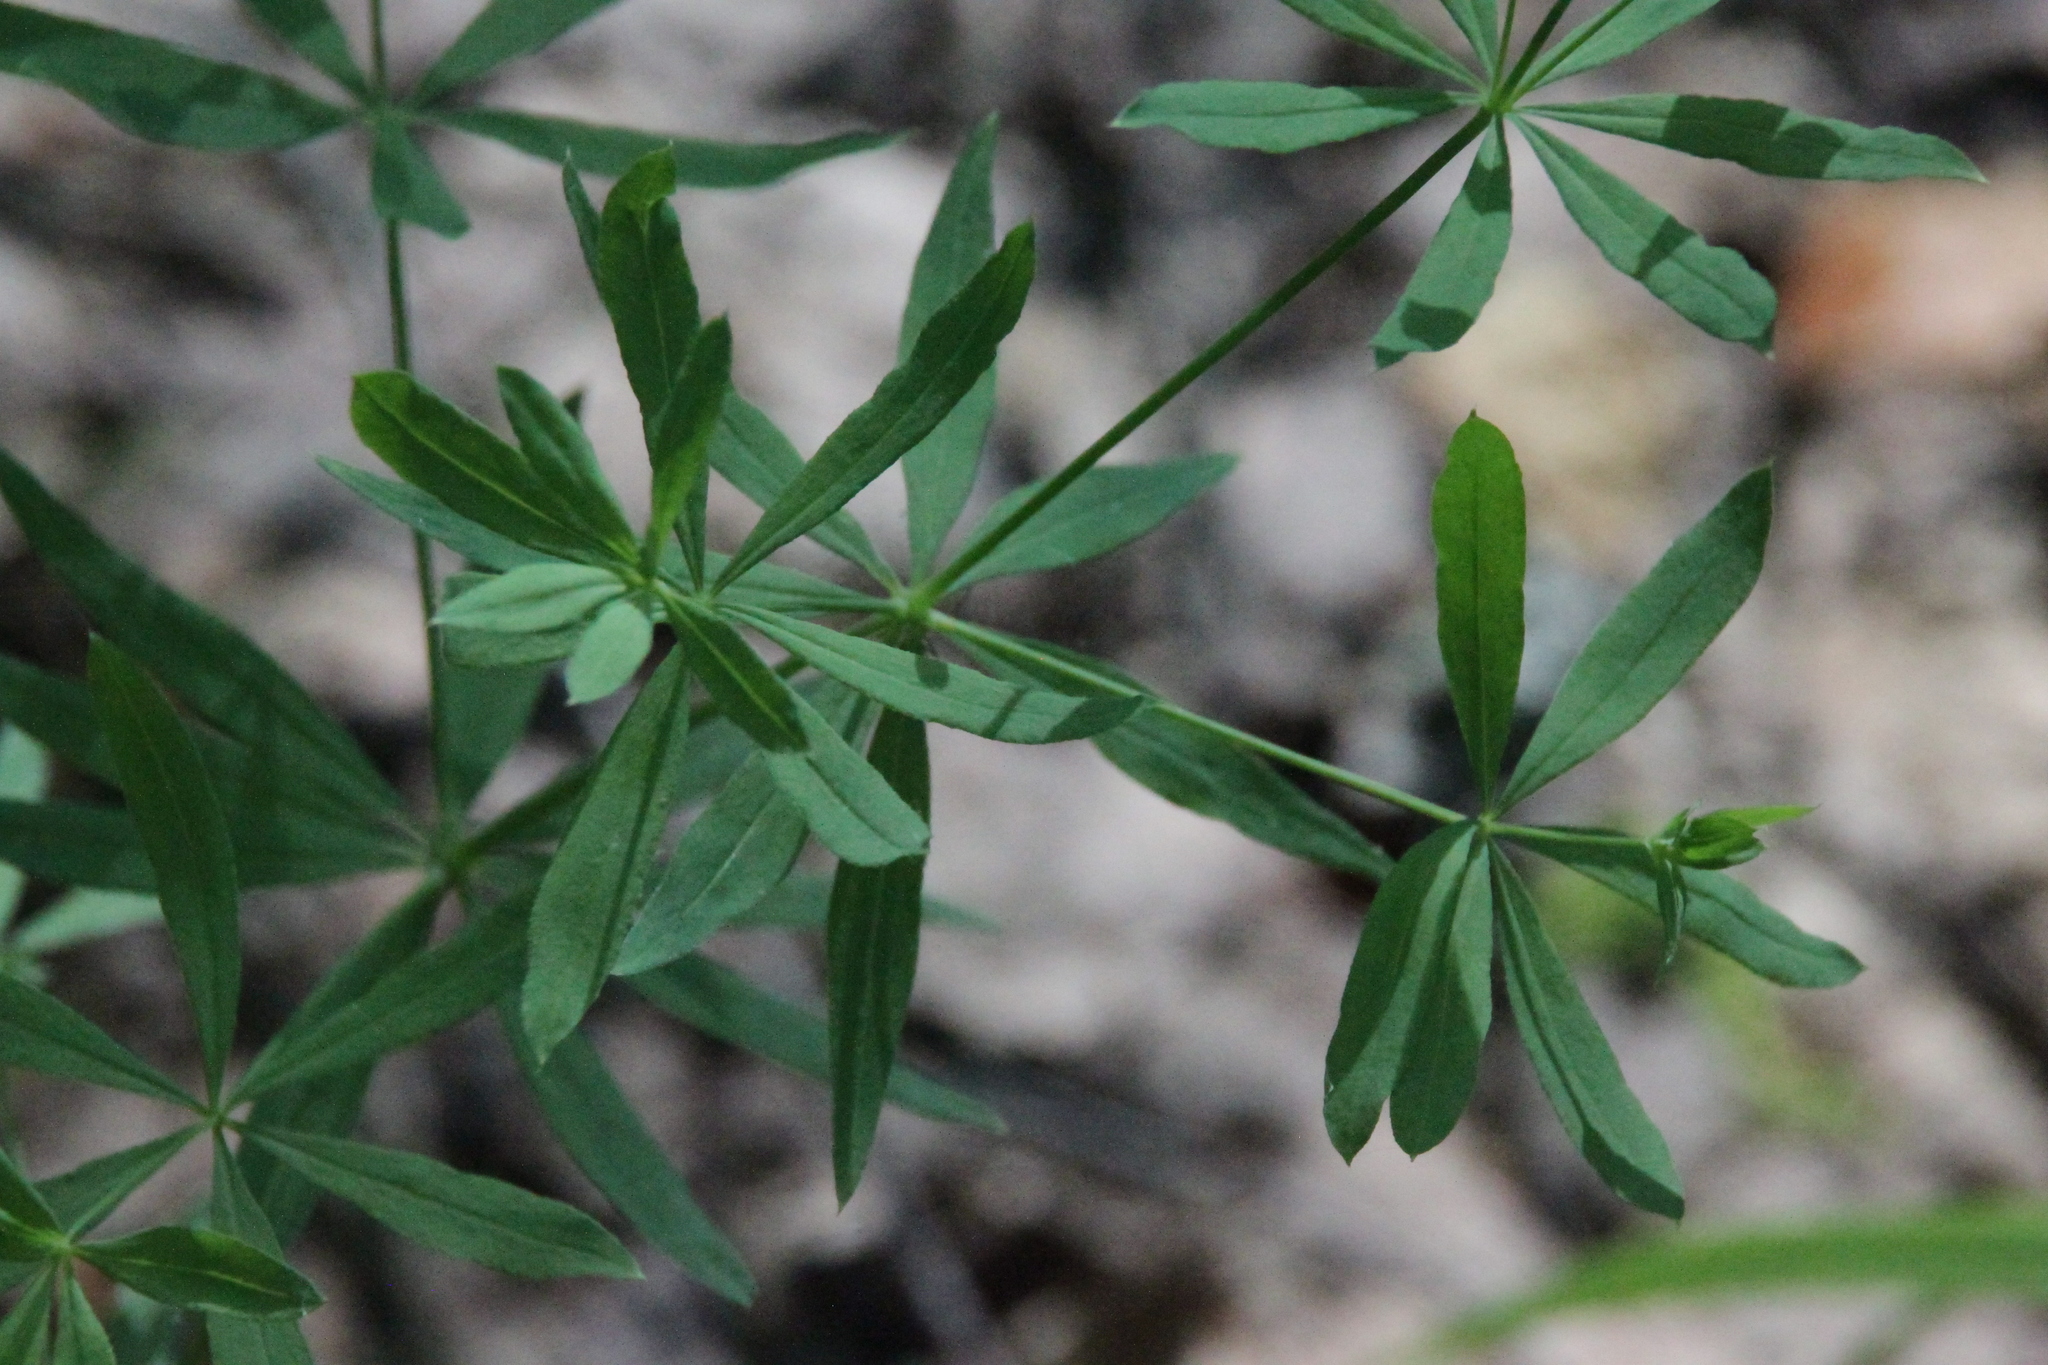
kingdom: Plantae
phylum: Tracheophyta
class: Magnoliopsida
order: Gentianales
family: Rubiaceae
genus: Galium
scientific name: Galium intermedium
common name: Bedstraw
